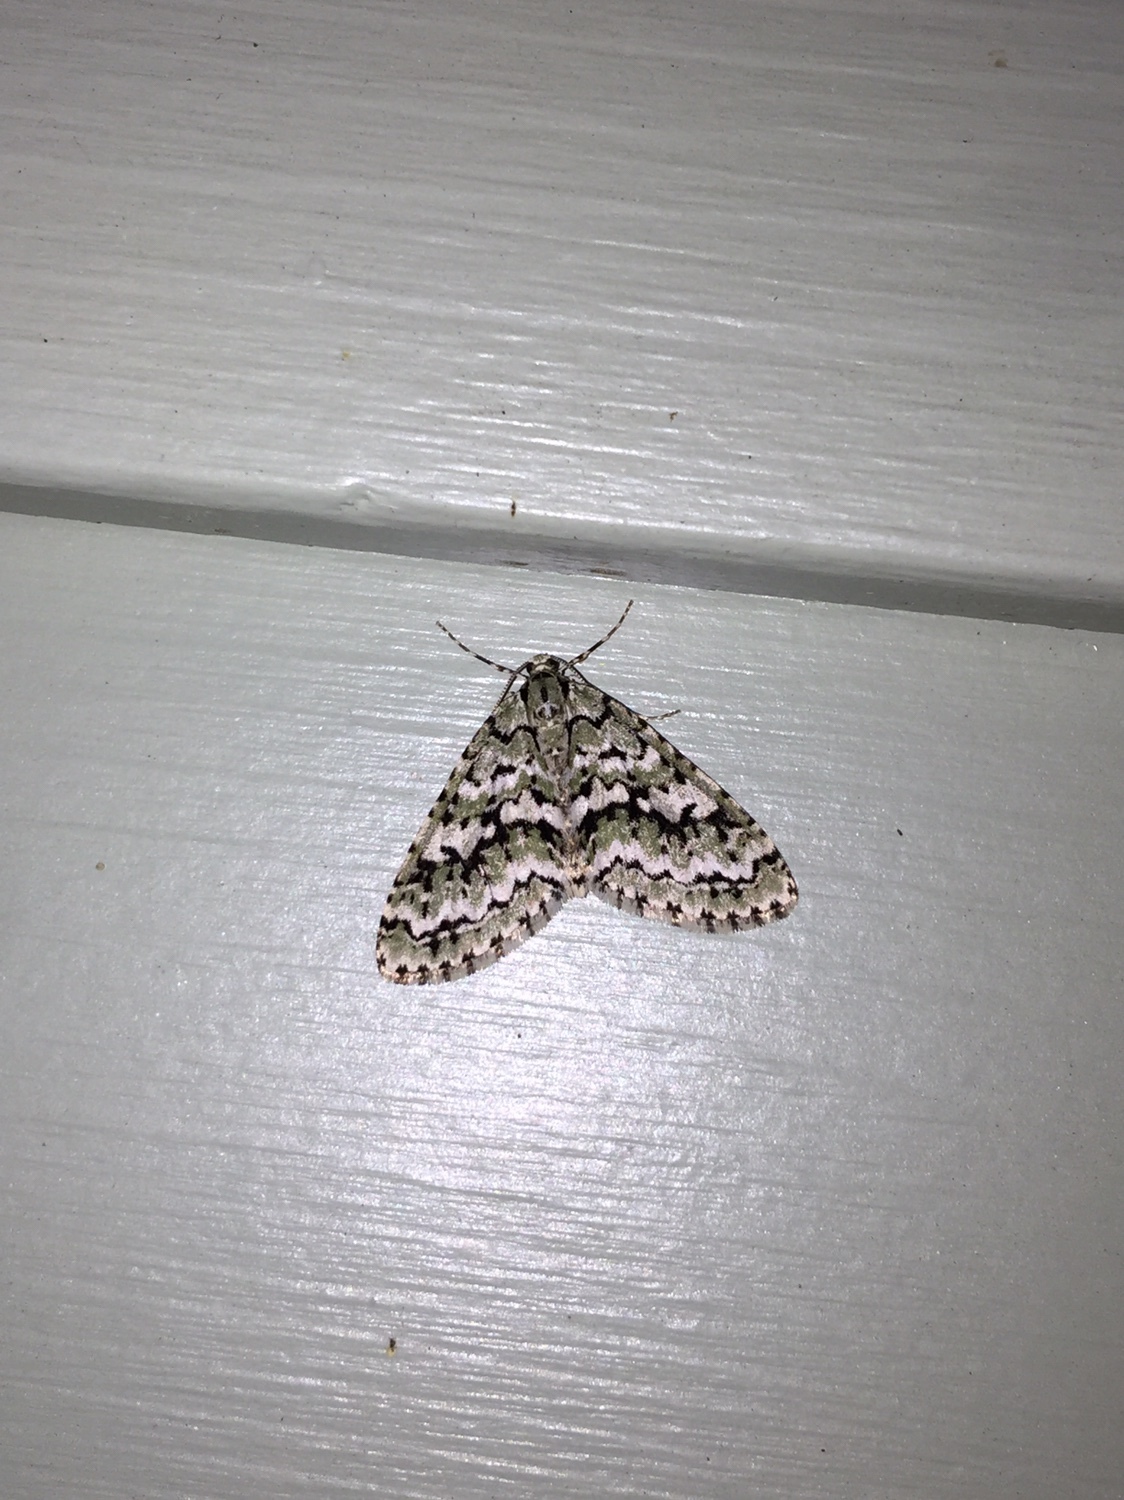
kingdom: Animalia
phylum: Arthropoda
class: Insecta
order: Lepidoptera
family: Geometridae
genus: Cladara
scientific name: Cladara atroliturata
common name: Scribbler
